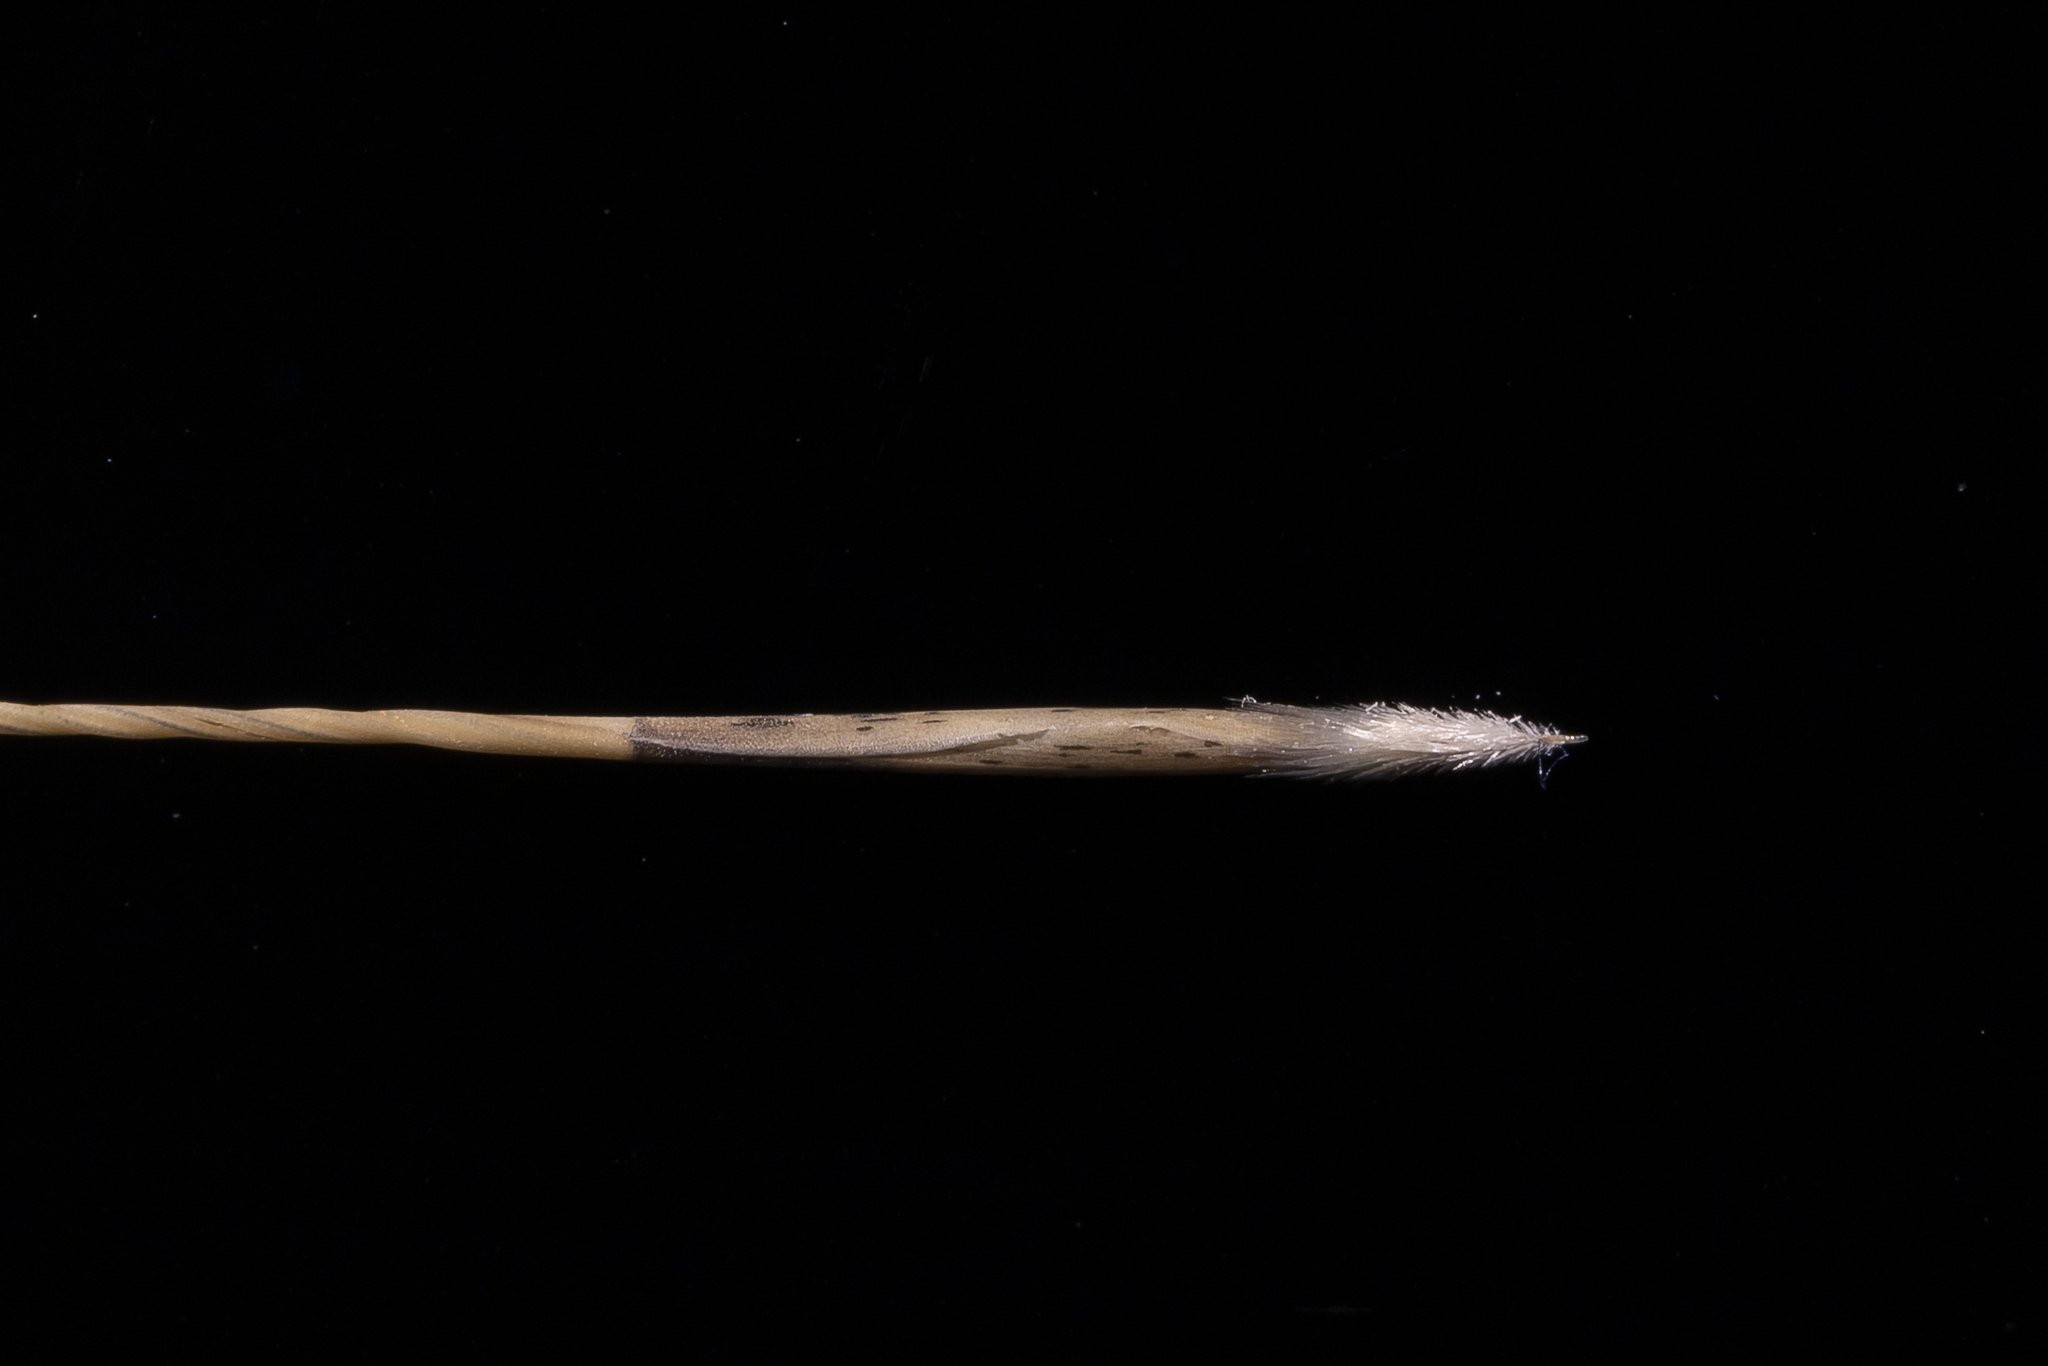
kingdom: Plantae
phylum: Tracheophyta
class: Liliopsida
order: Poales
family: Poaceae
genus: Aristida
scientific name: Aristida holathera
